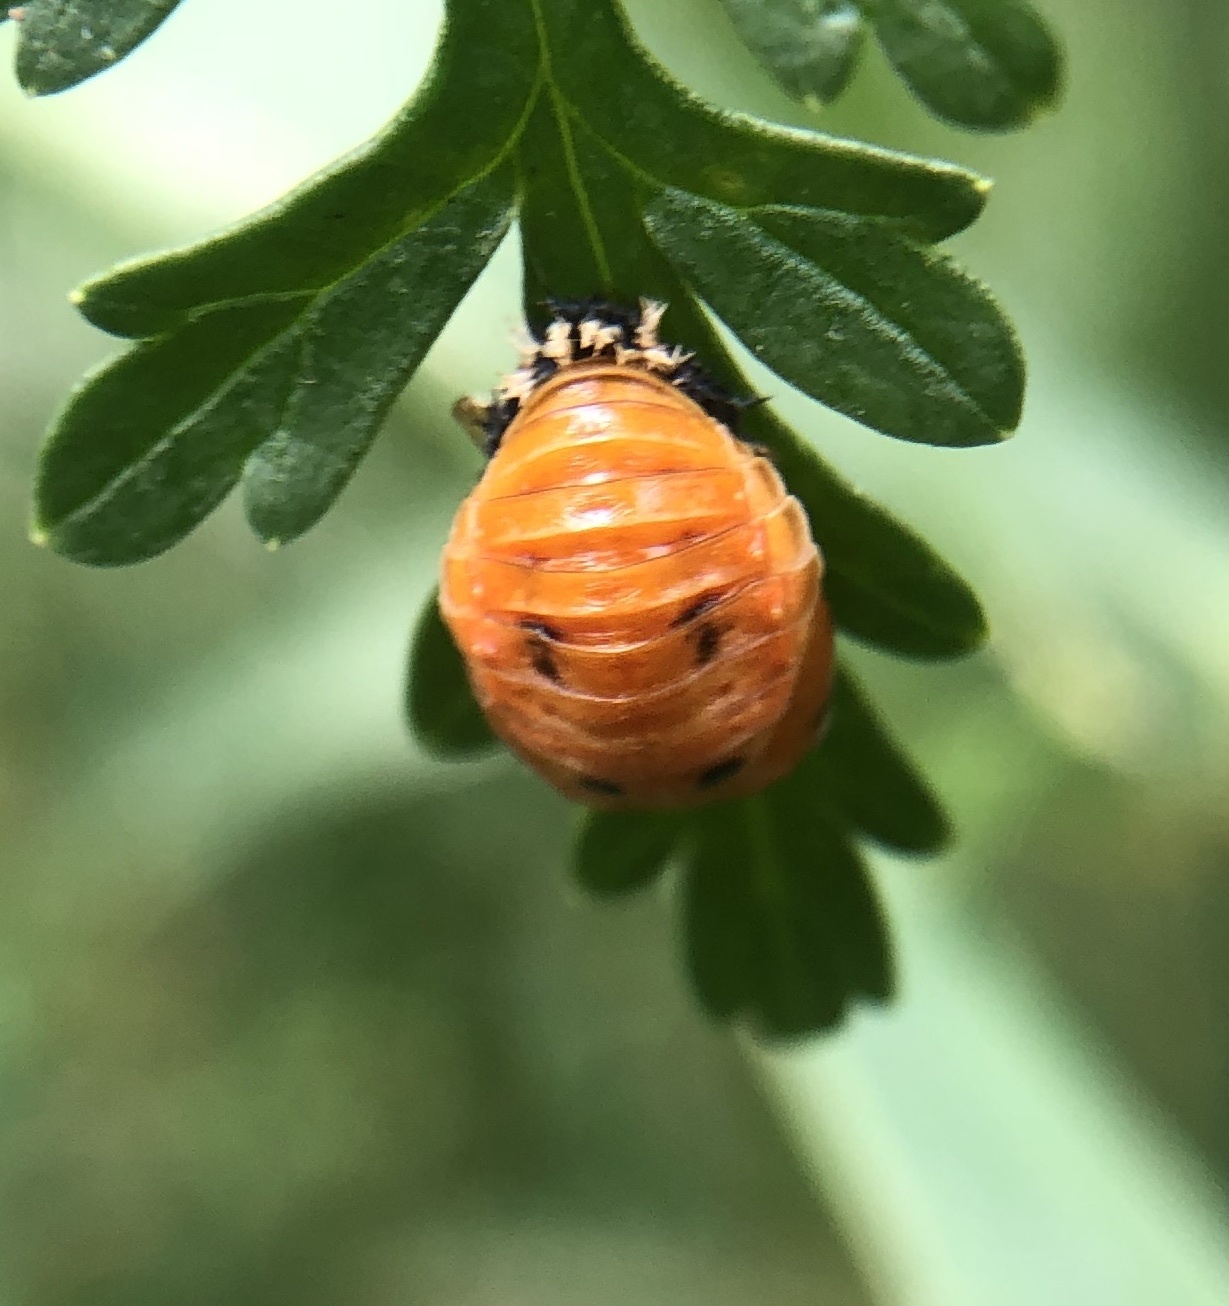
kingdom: Animalia
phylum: Arthropoda
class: Insecta
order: Coleoptera
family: Coccinellidae
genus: Harmonia
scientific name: Harmonia axyridis
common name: Harlequin ladybird
